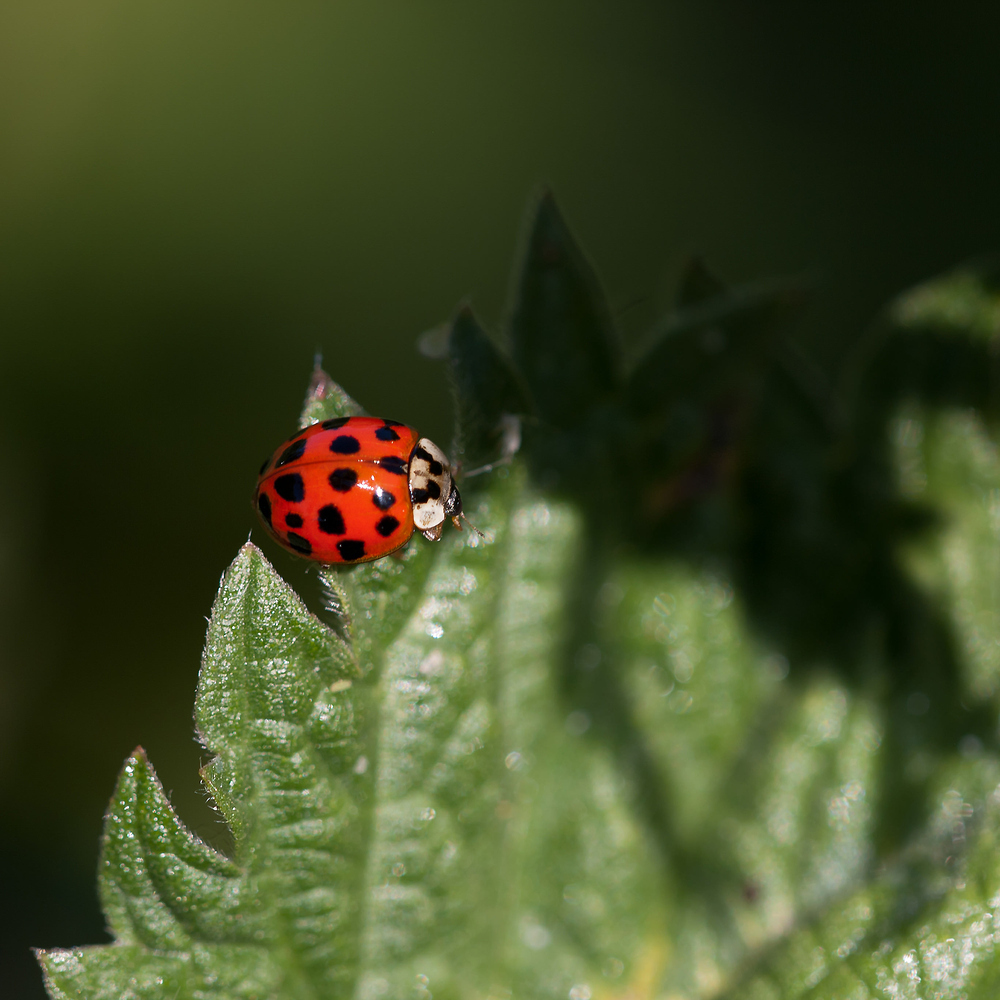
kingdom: Animalia
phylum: Arthropoda
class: Insecta
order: Coleoptera
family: Coccinellidae
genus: Harmonia
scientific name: Harmonia axyridis
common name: Harlequin ladybird
